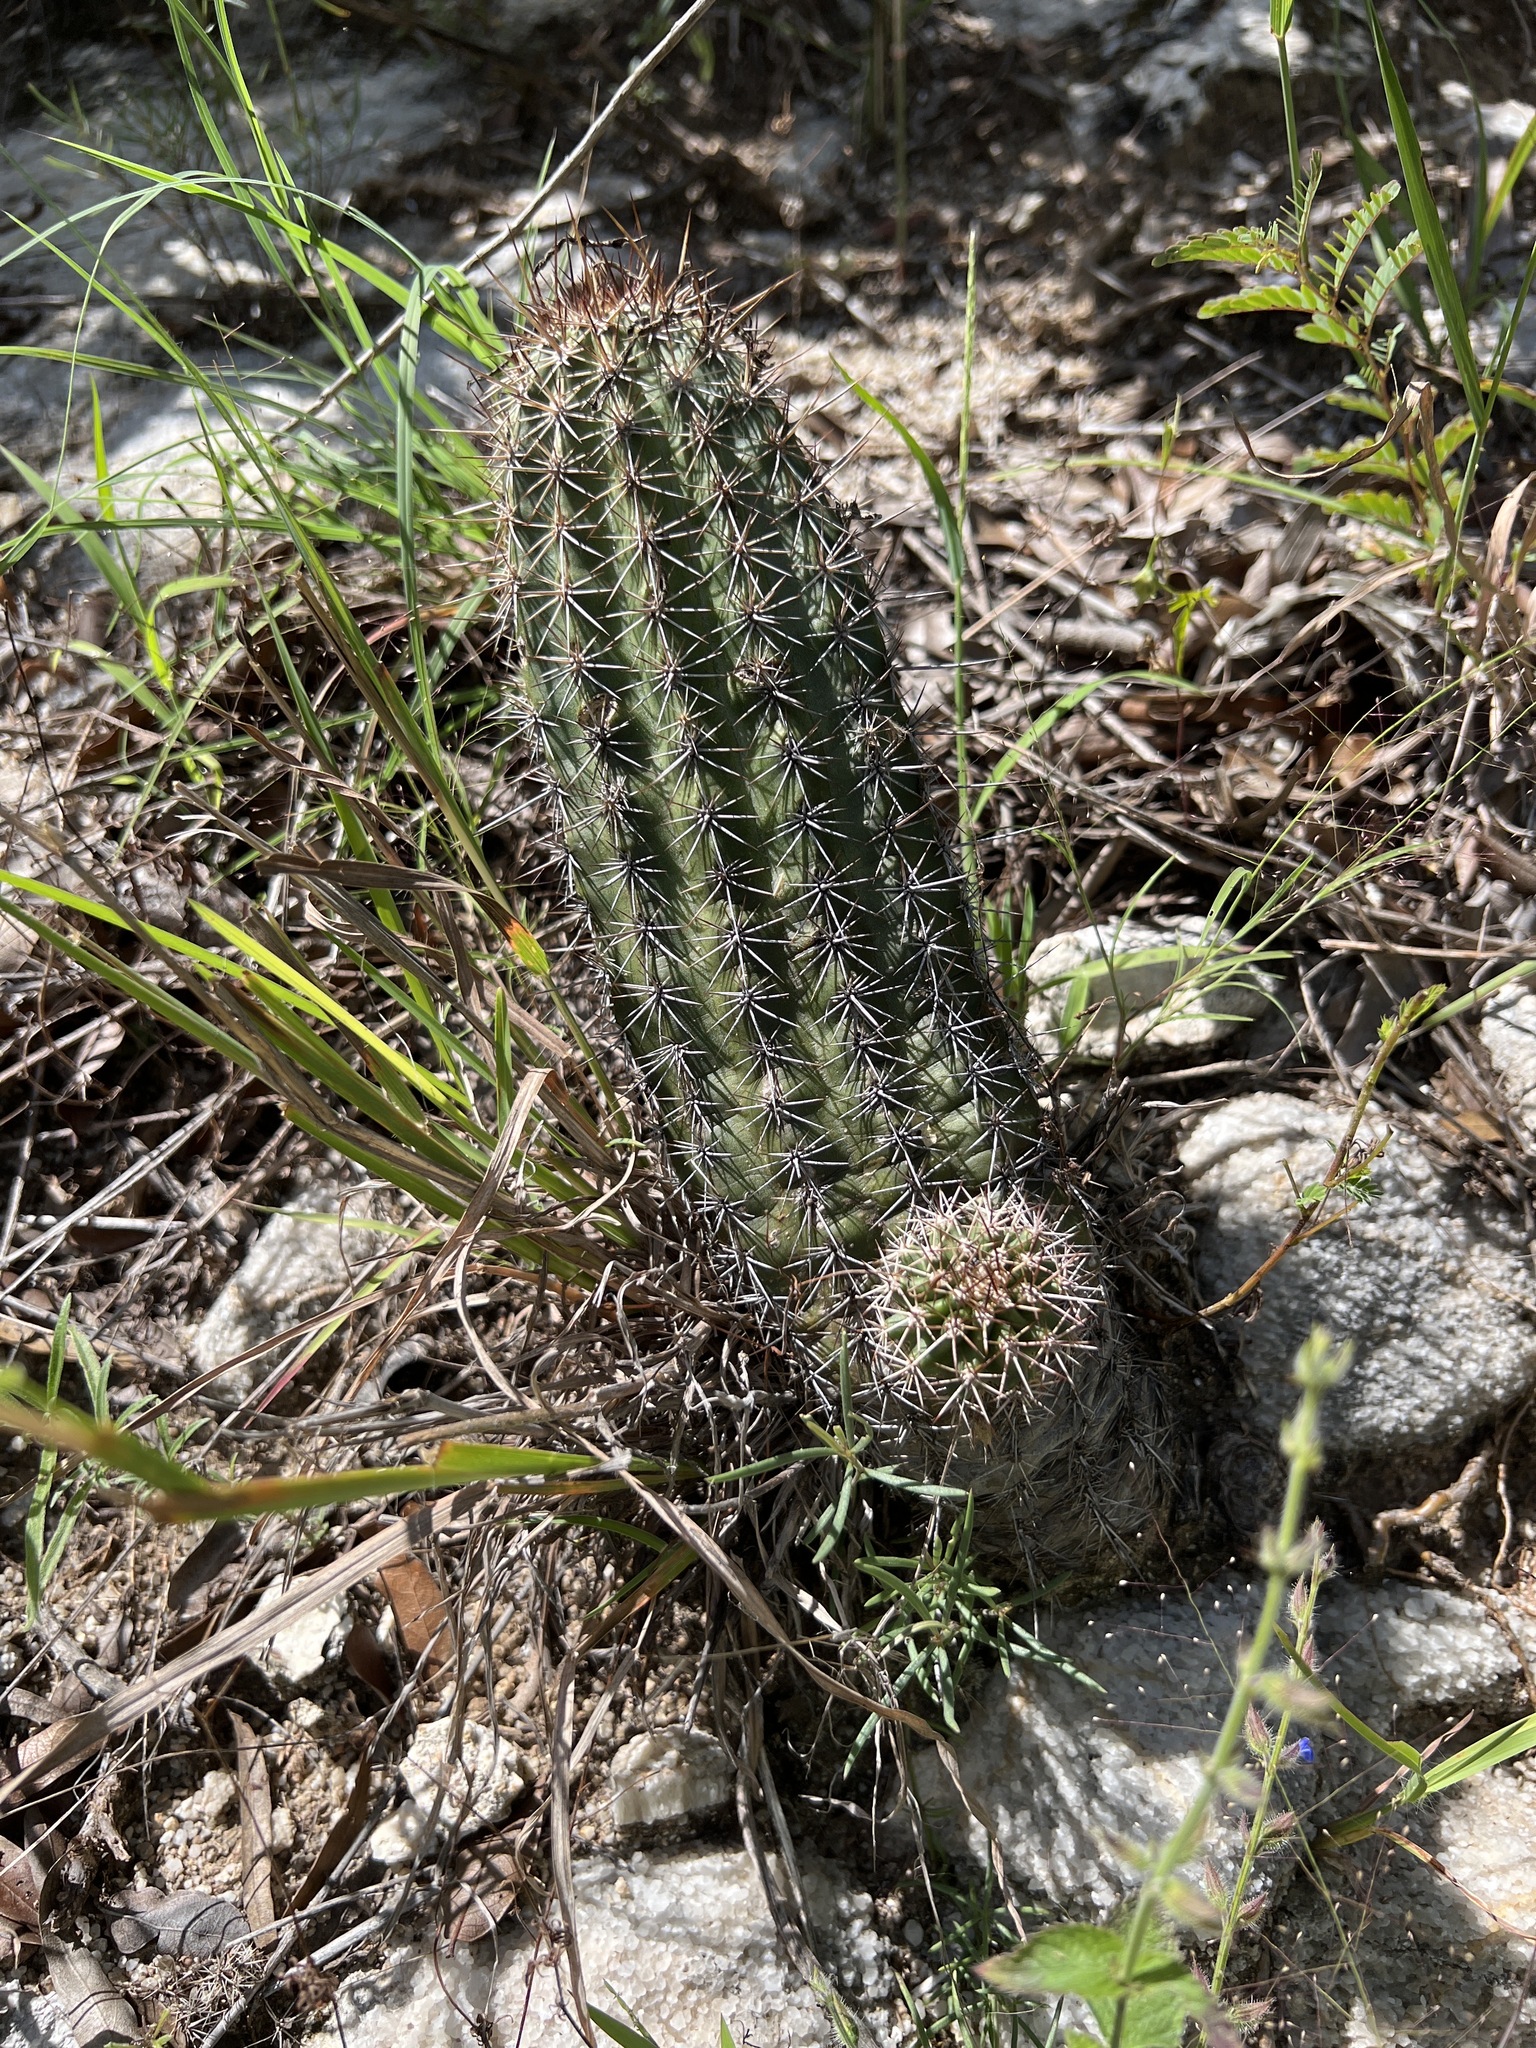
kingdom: Plantae
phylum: Tracheophyta
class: Magnoliopsida
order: Caryophyllales
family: Cactaceae
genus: Echinocereus
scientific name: Echinocereus scheeri
